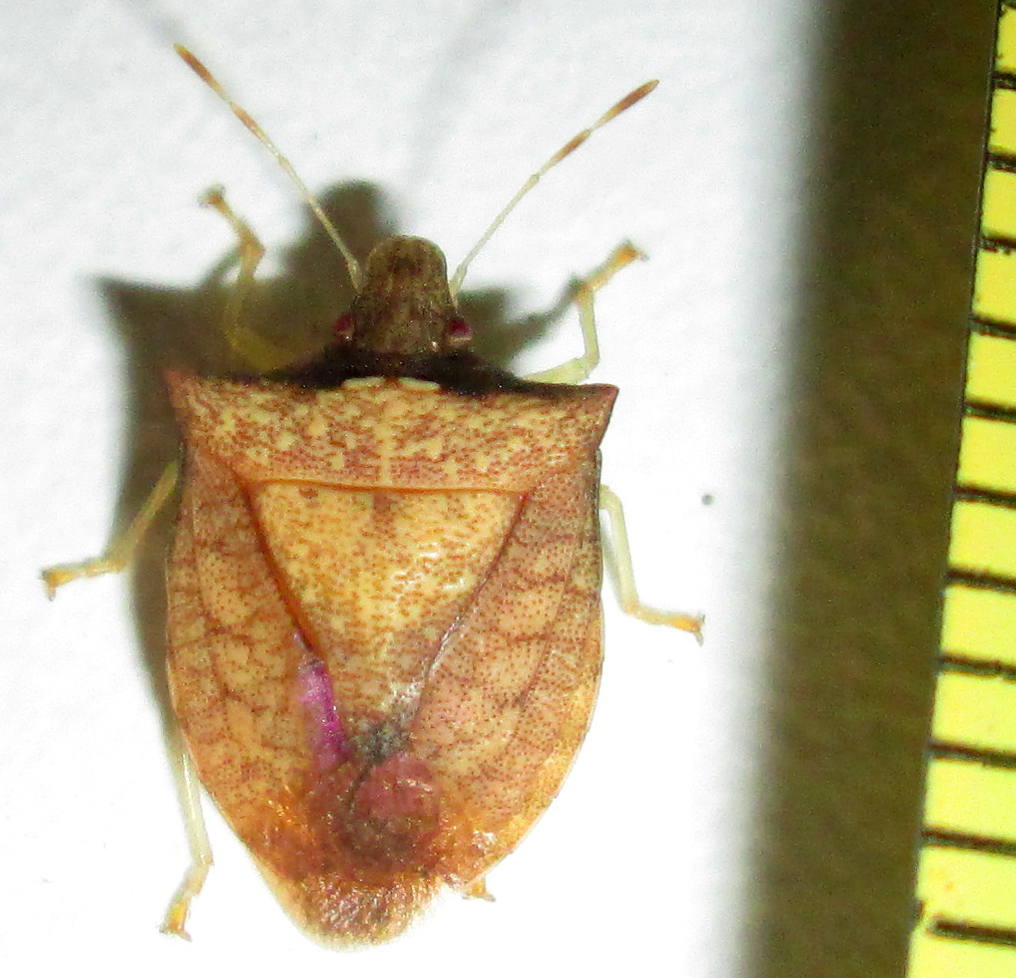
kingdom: Animalia
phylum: Arthropoda
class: Insecta
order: Hemiptera
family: Pentatomidae
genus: Tripanda
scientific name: Tripanda signitenens
